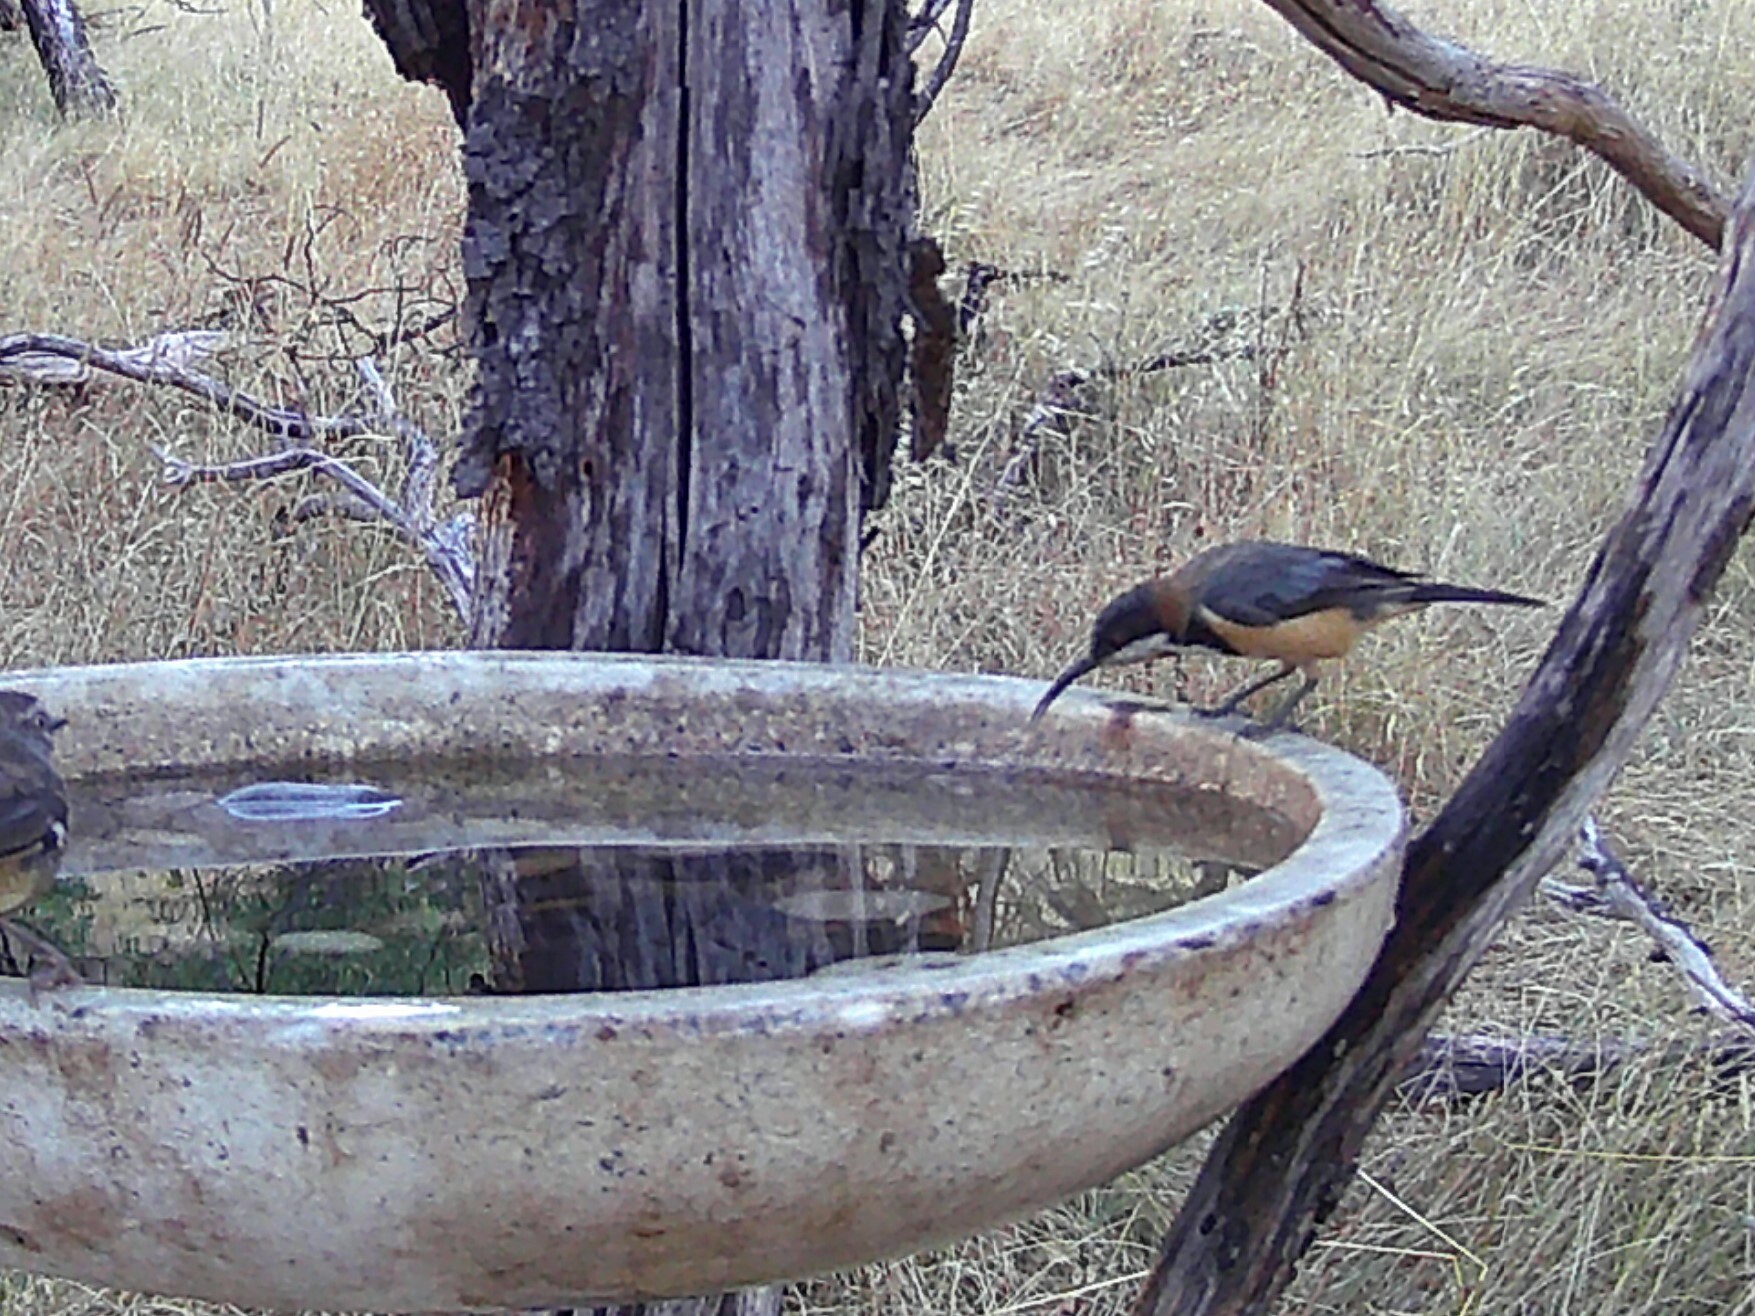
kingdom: Animalia
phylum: Chordata
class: Aves
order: Passeriformes
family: Meliphagidae
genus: Acanthorhynchus
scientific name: Acanthorhynchus tenuirostris
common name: Eastern spinebill
